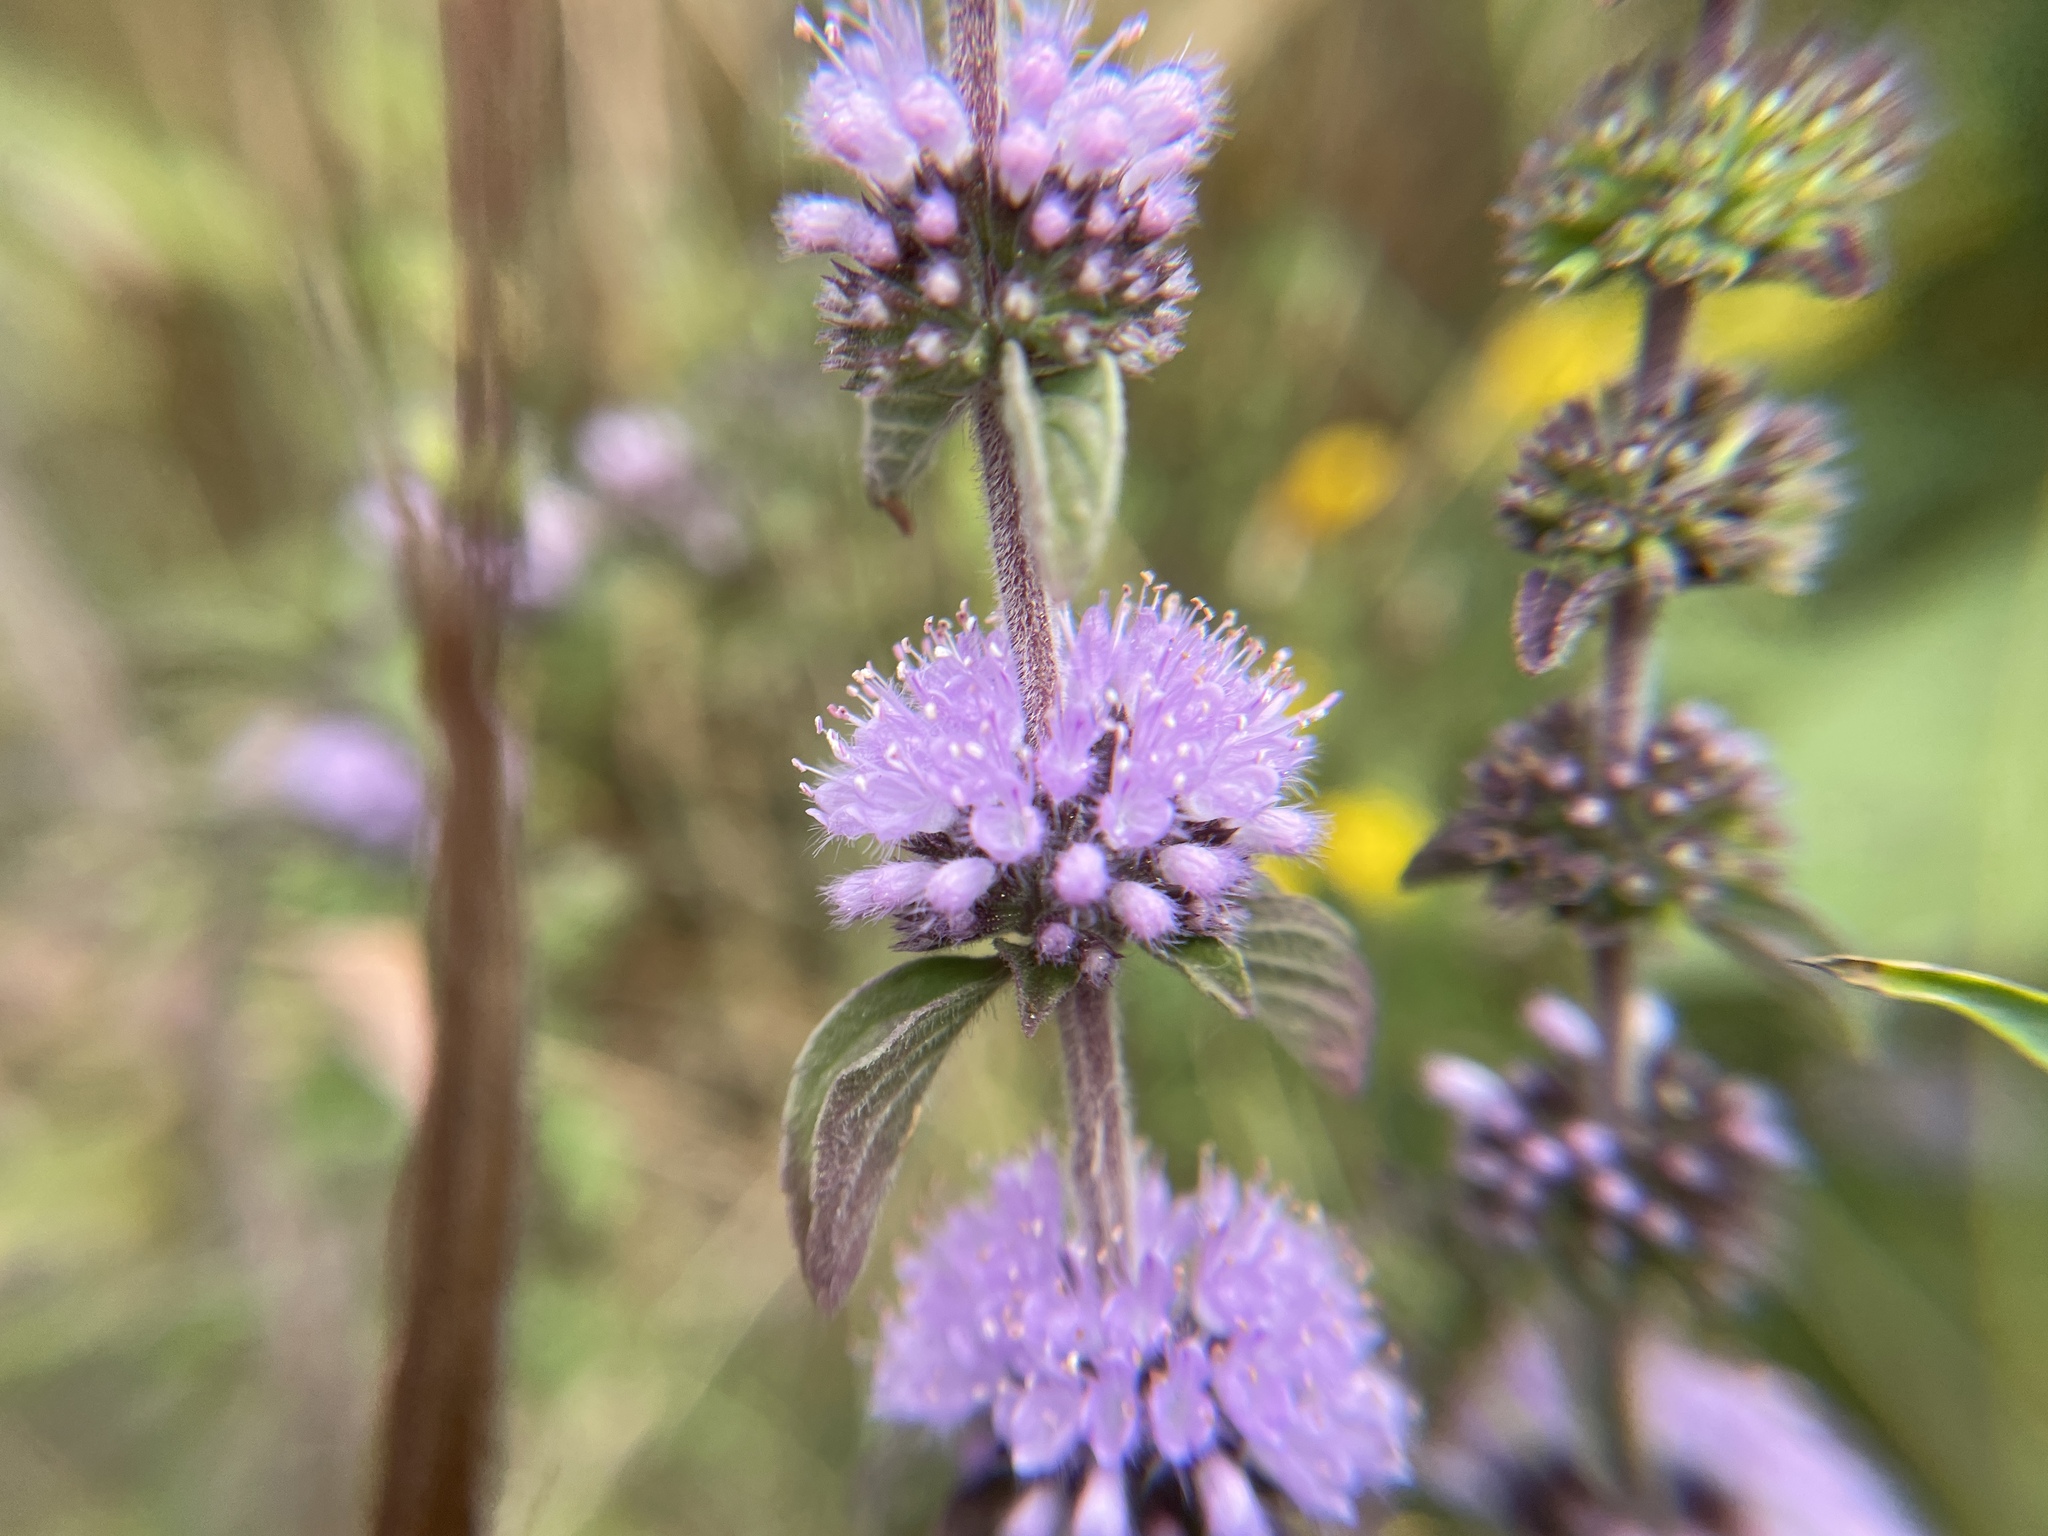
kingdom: Plantae
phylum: Tracheophyta
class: Magnoliopsida
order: Lamiales
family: Lamiaceae
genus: Mentha
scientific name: Mentha pulegium
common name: Pennyroyal
